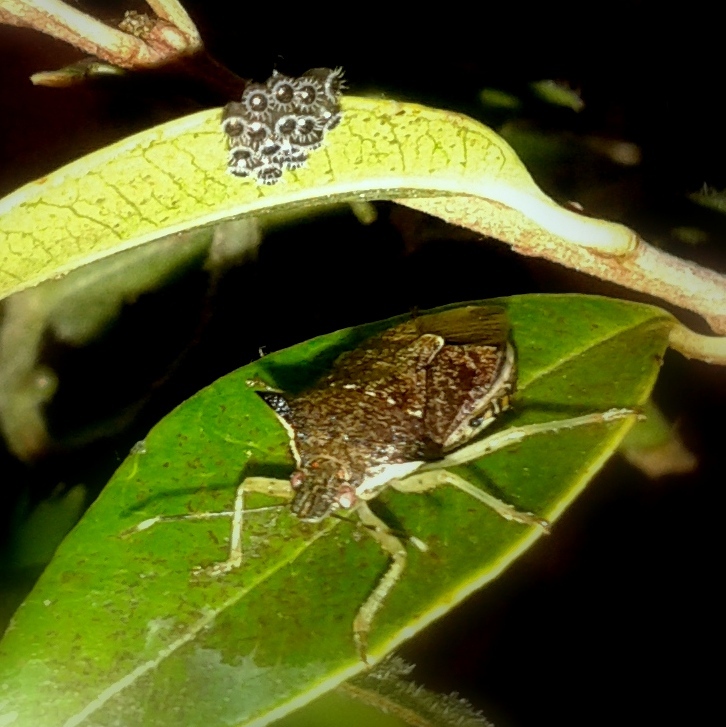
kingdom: Animalia
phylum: Arthropoda
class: Insecta
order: Hemiptera
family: Pentatomidae
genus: Podisus
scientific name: Podisus nigrispinus
